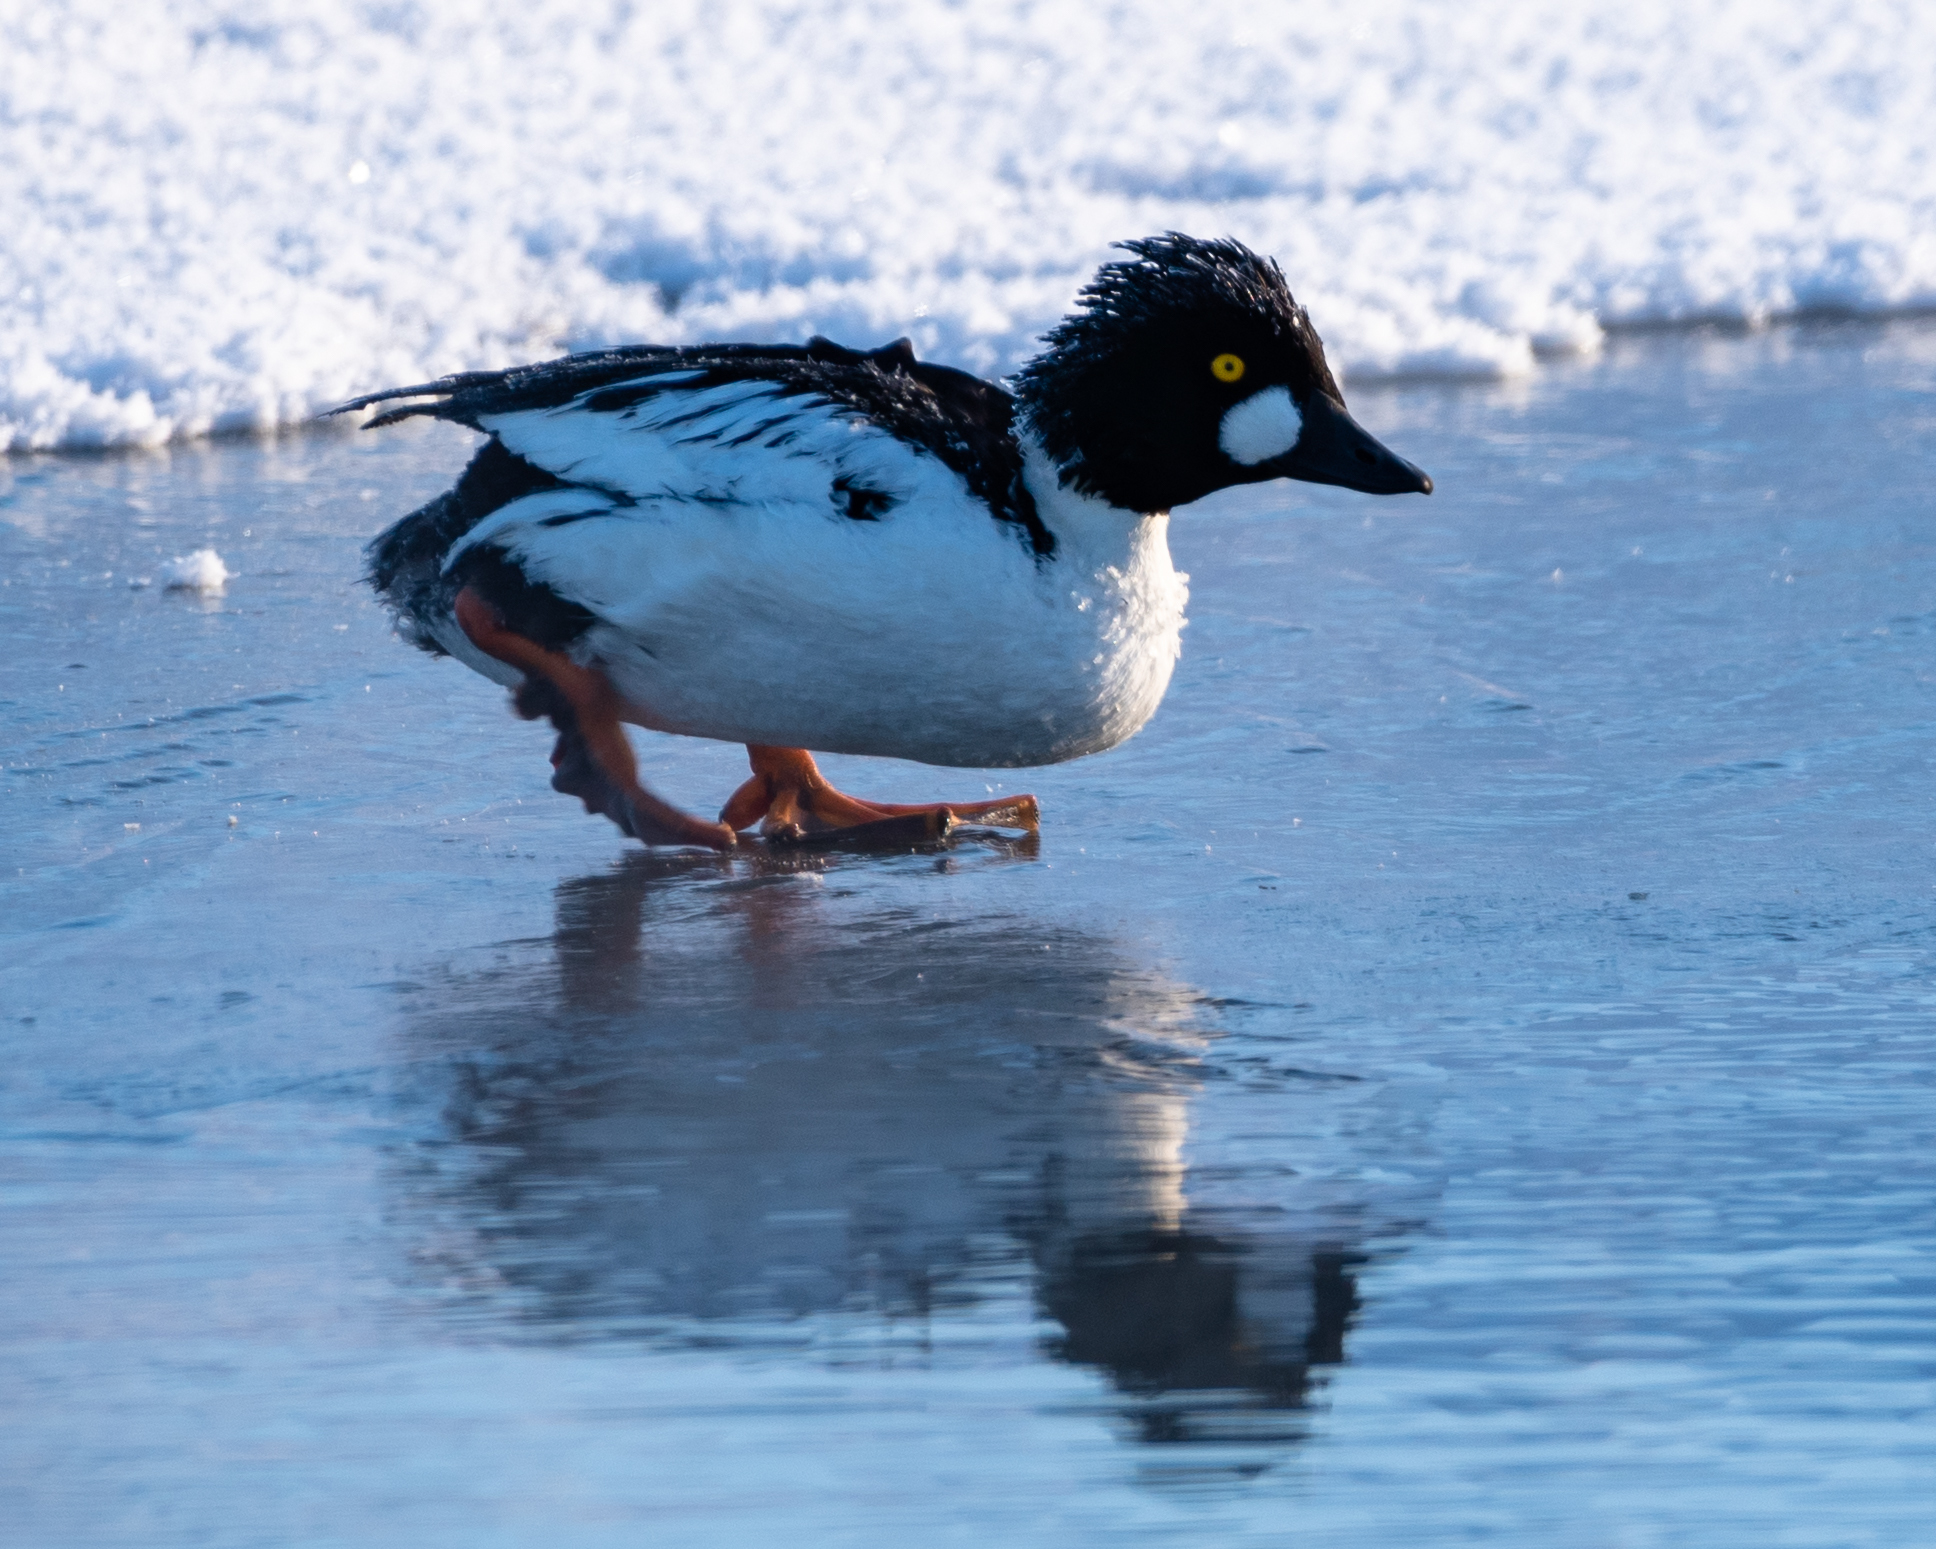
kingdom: Animalia
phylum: Chordata
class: Aves
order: Anseriformes
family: Anatidae
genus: Bucephala
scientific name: Bucephala clangula
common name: Common goldeneye
